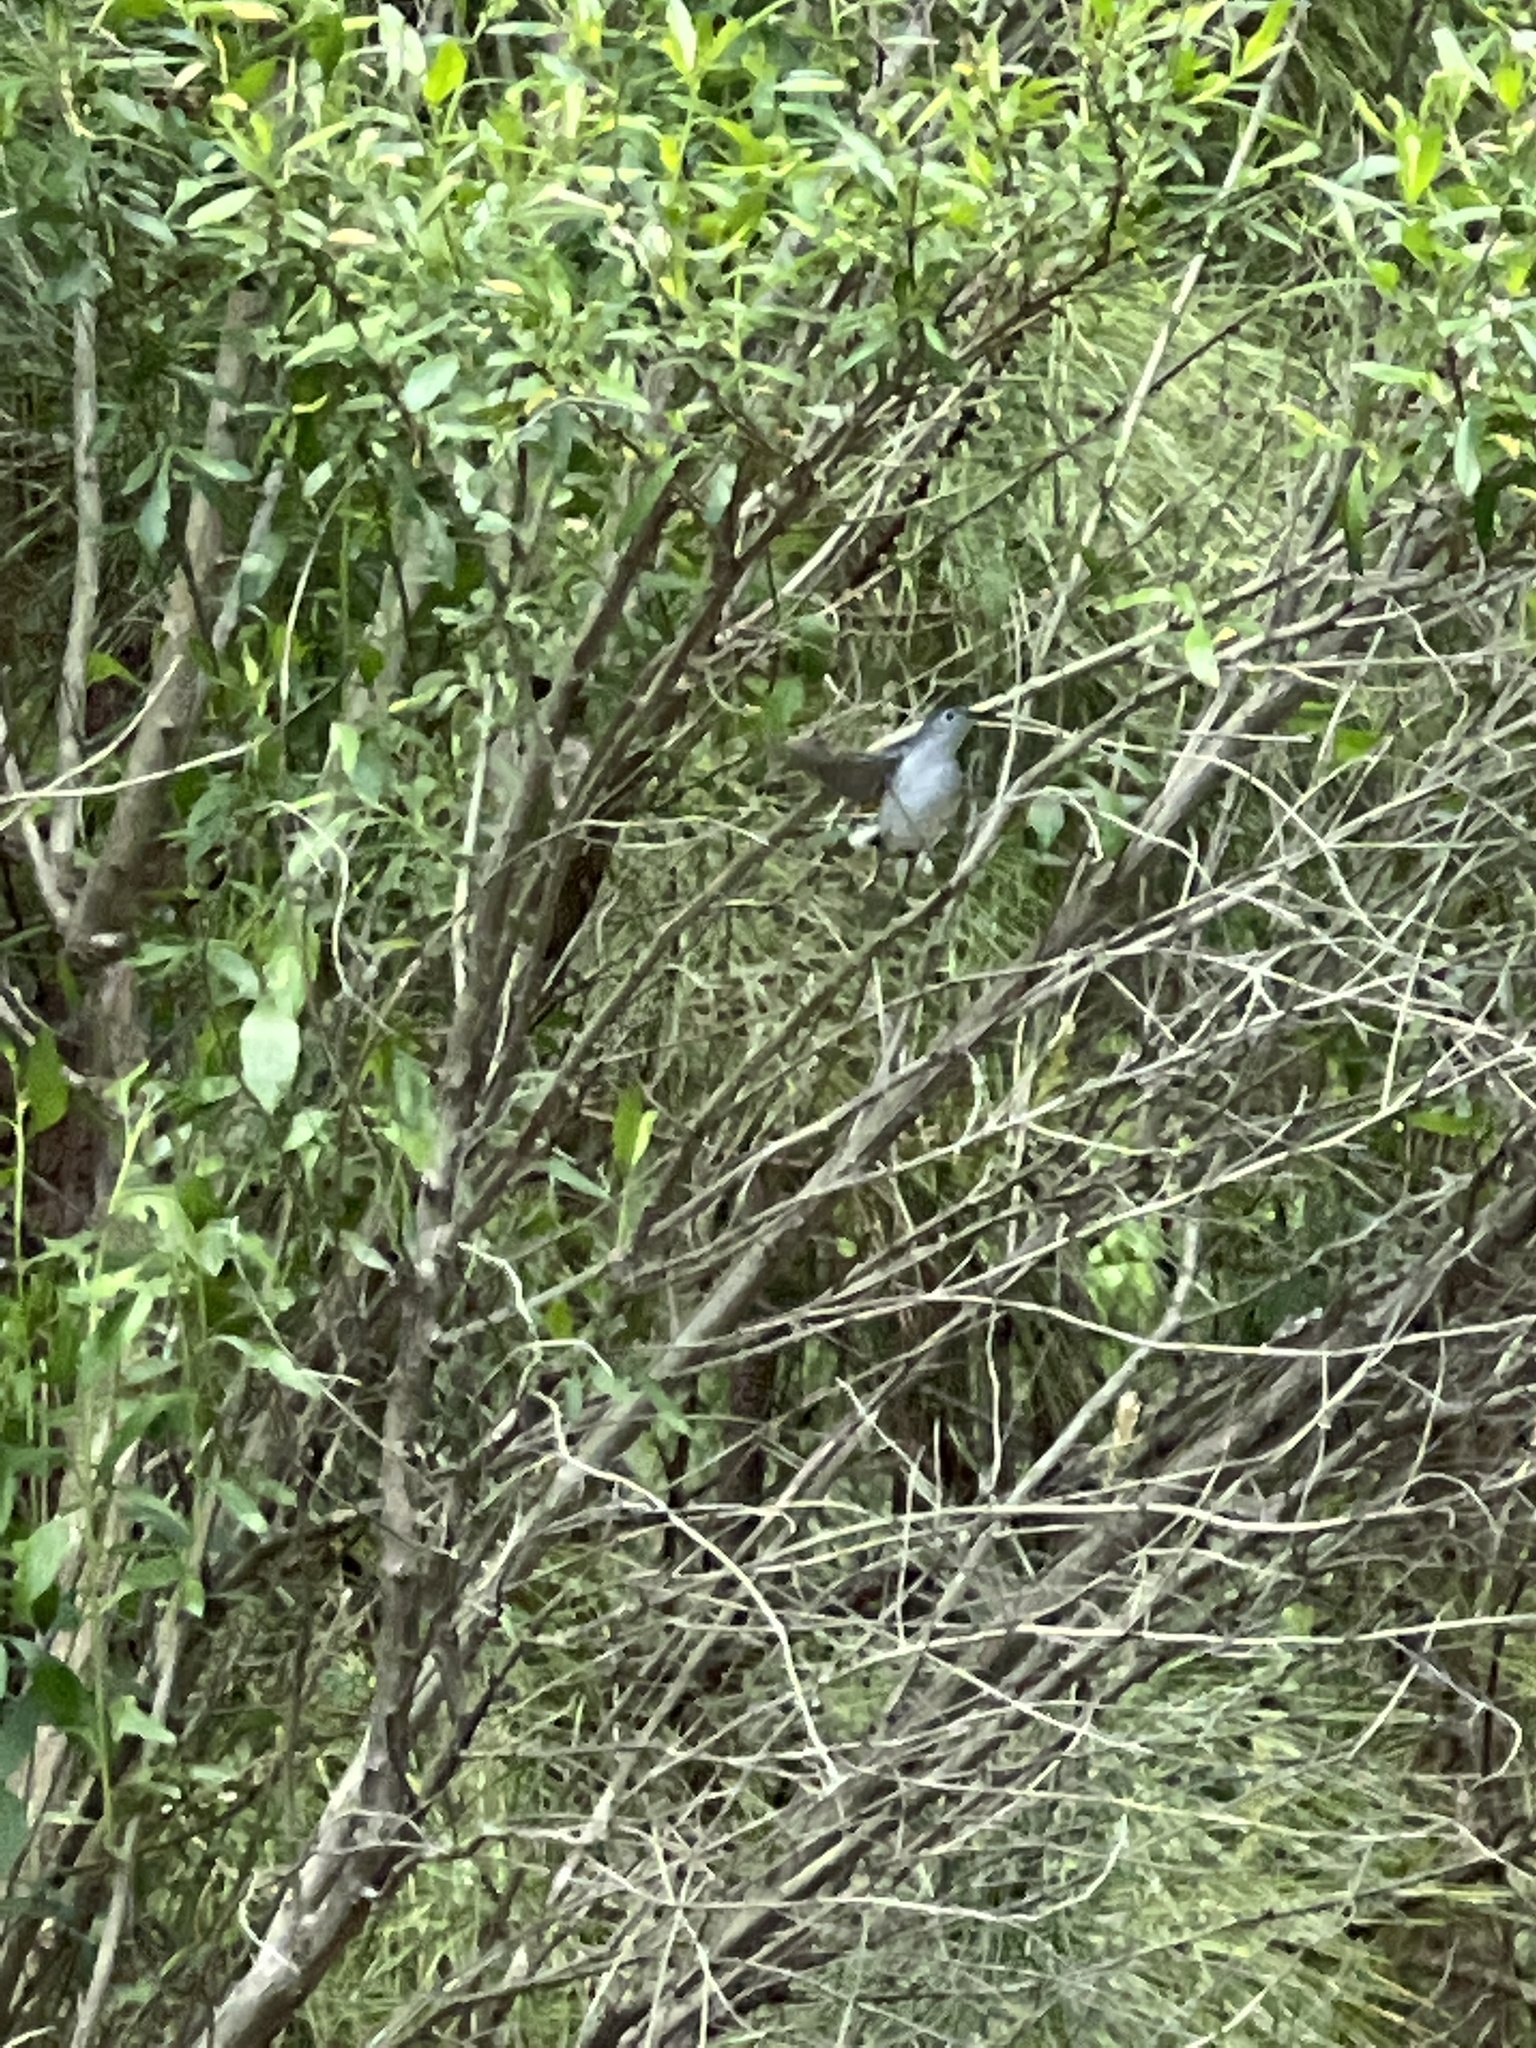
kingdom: Animalia
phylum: Chordata
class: Aves
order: Passeriformes
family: Polioptilidae
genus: Polioptila
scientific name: Polioptila caerulea
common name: Blue-gray gnatcatcher
